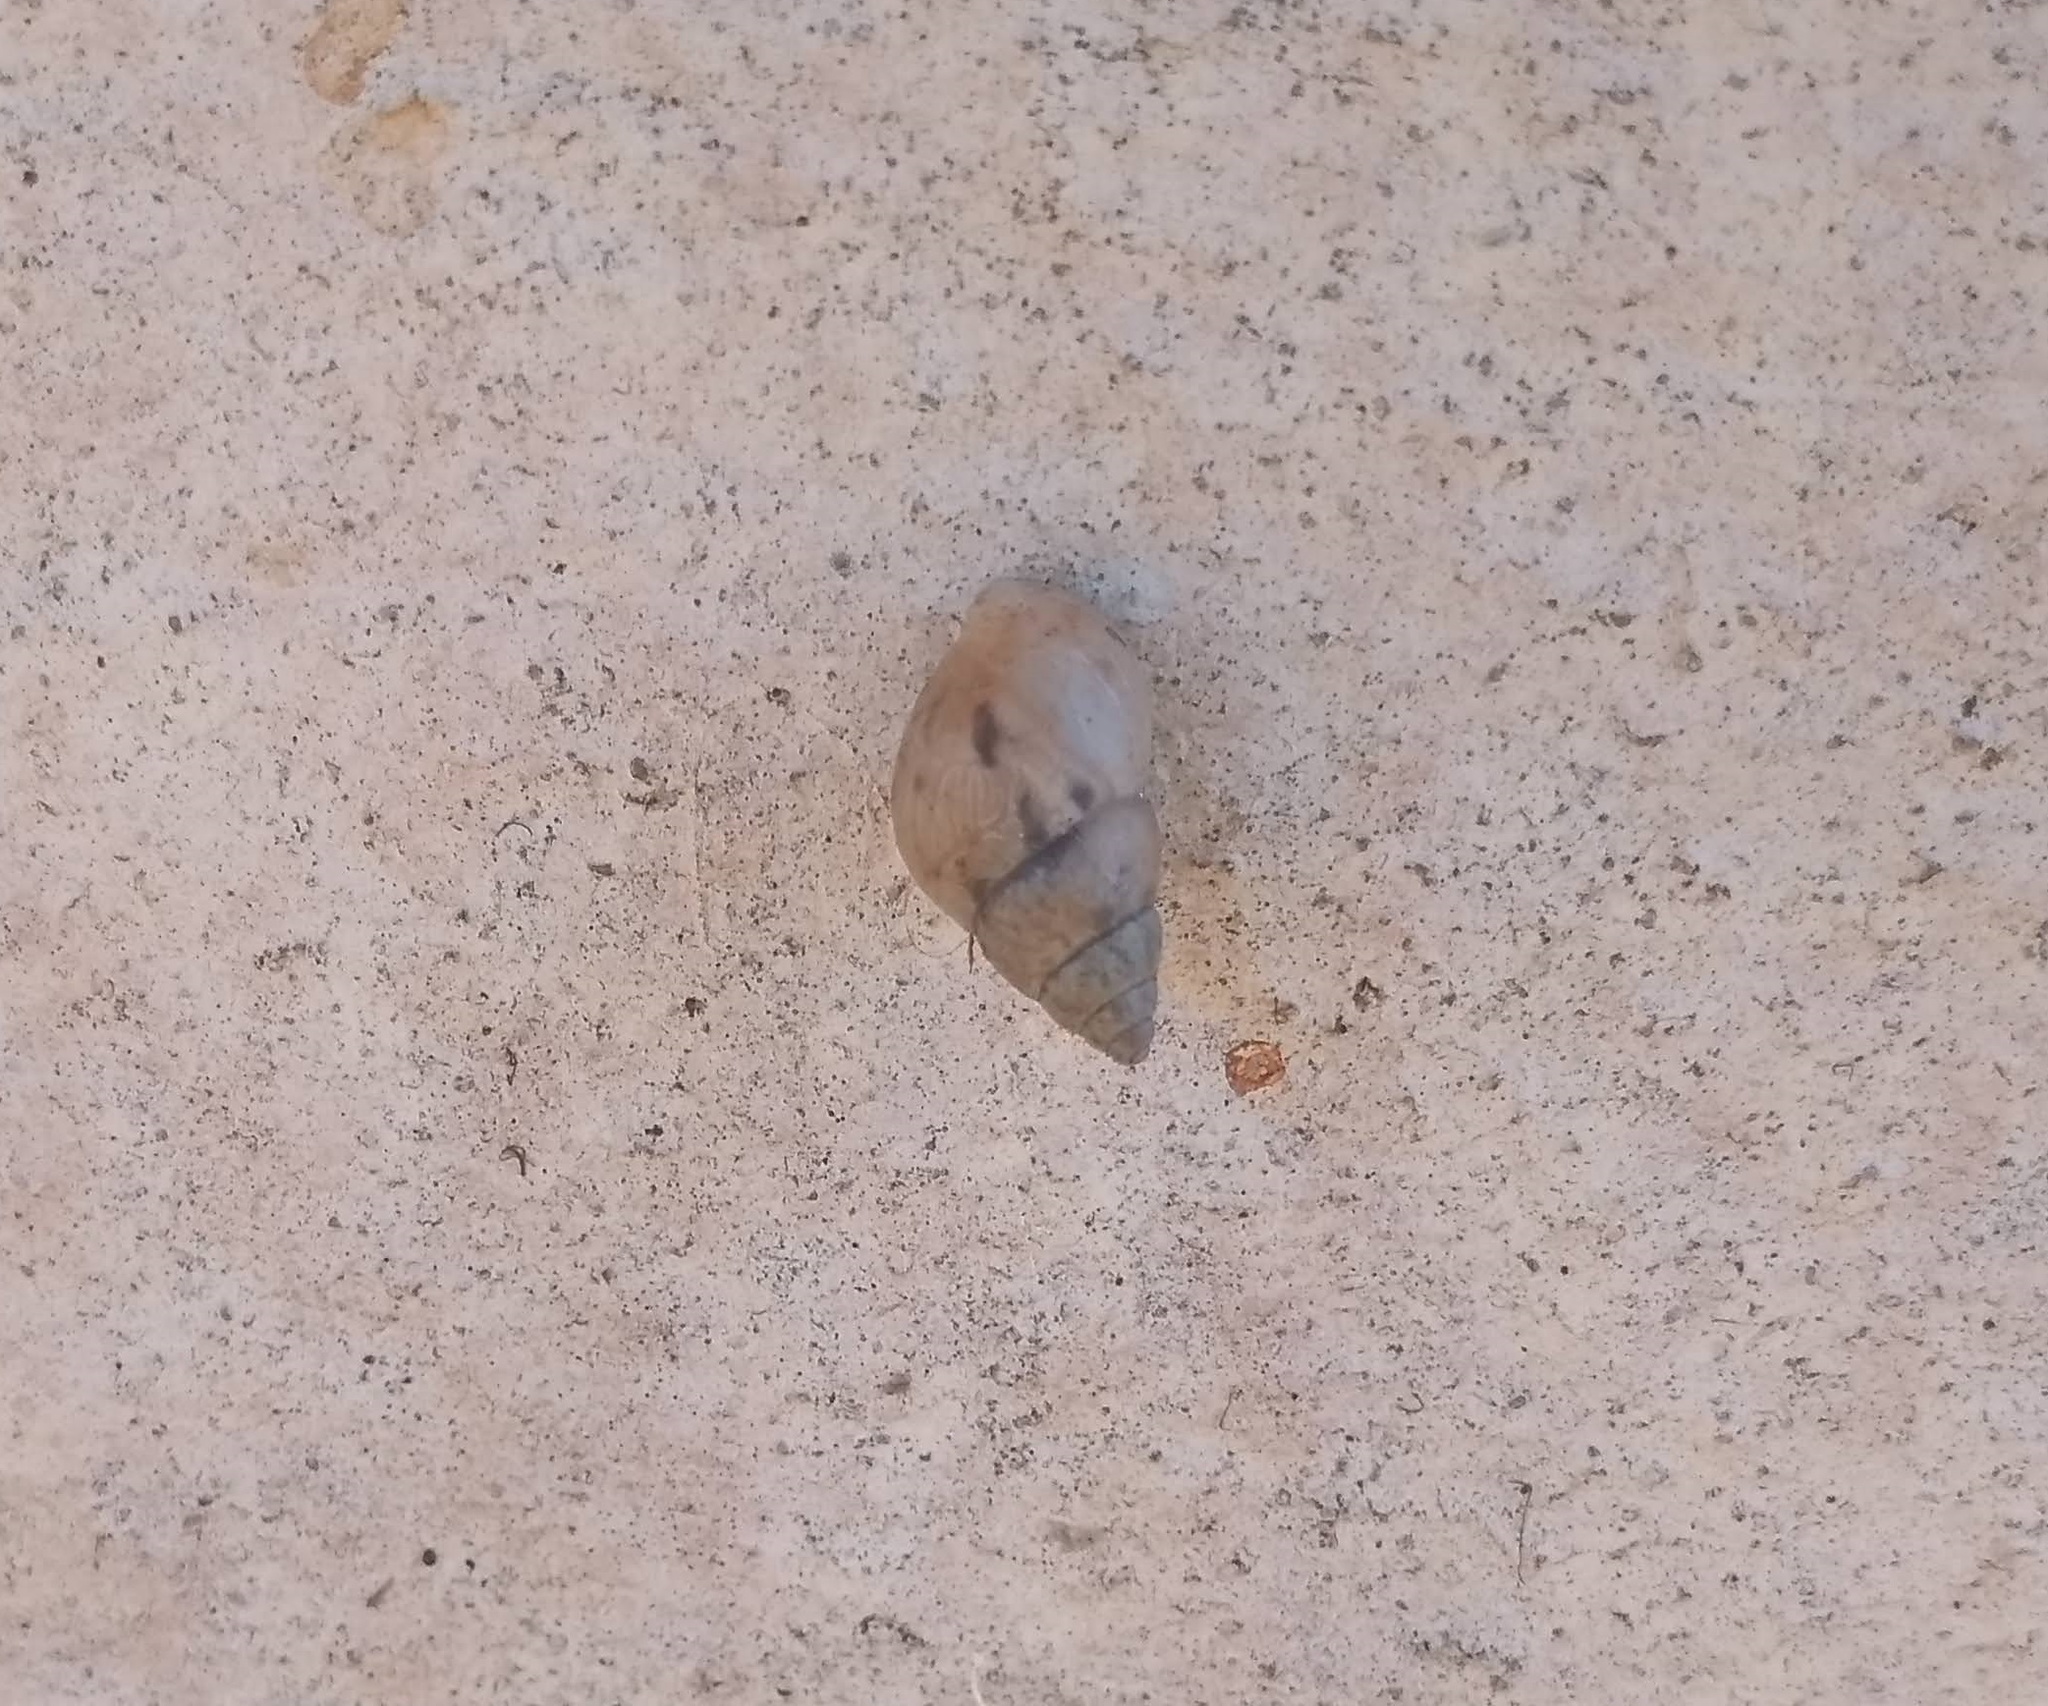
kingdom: Animalia
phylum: Mollusca
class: Gastropoda
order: Stylommatophora
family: Bulimulidae
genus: Bulimulus
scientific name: Bulimulus tenuissimus
